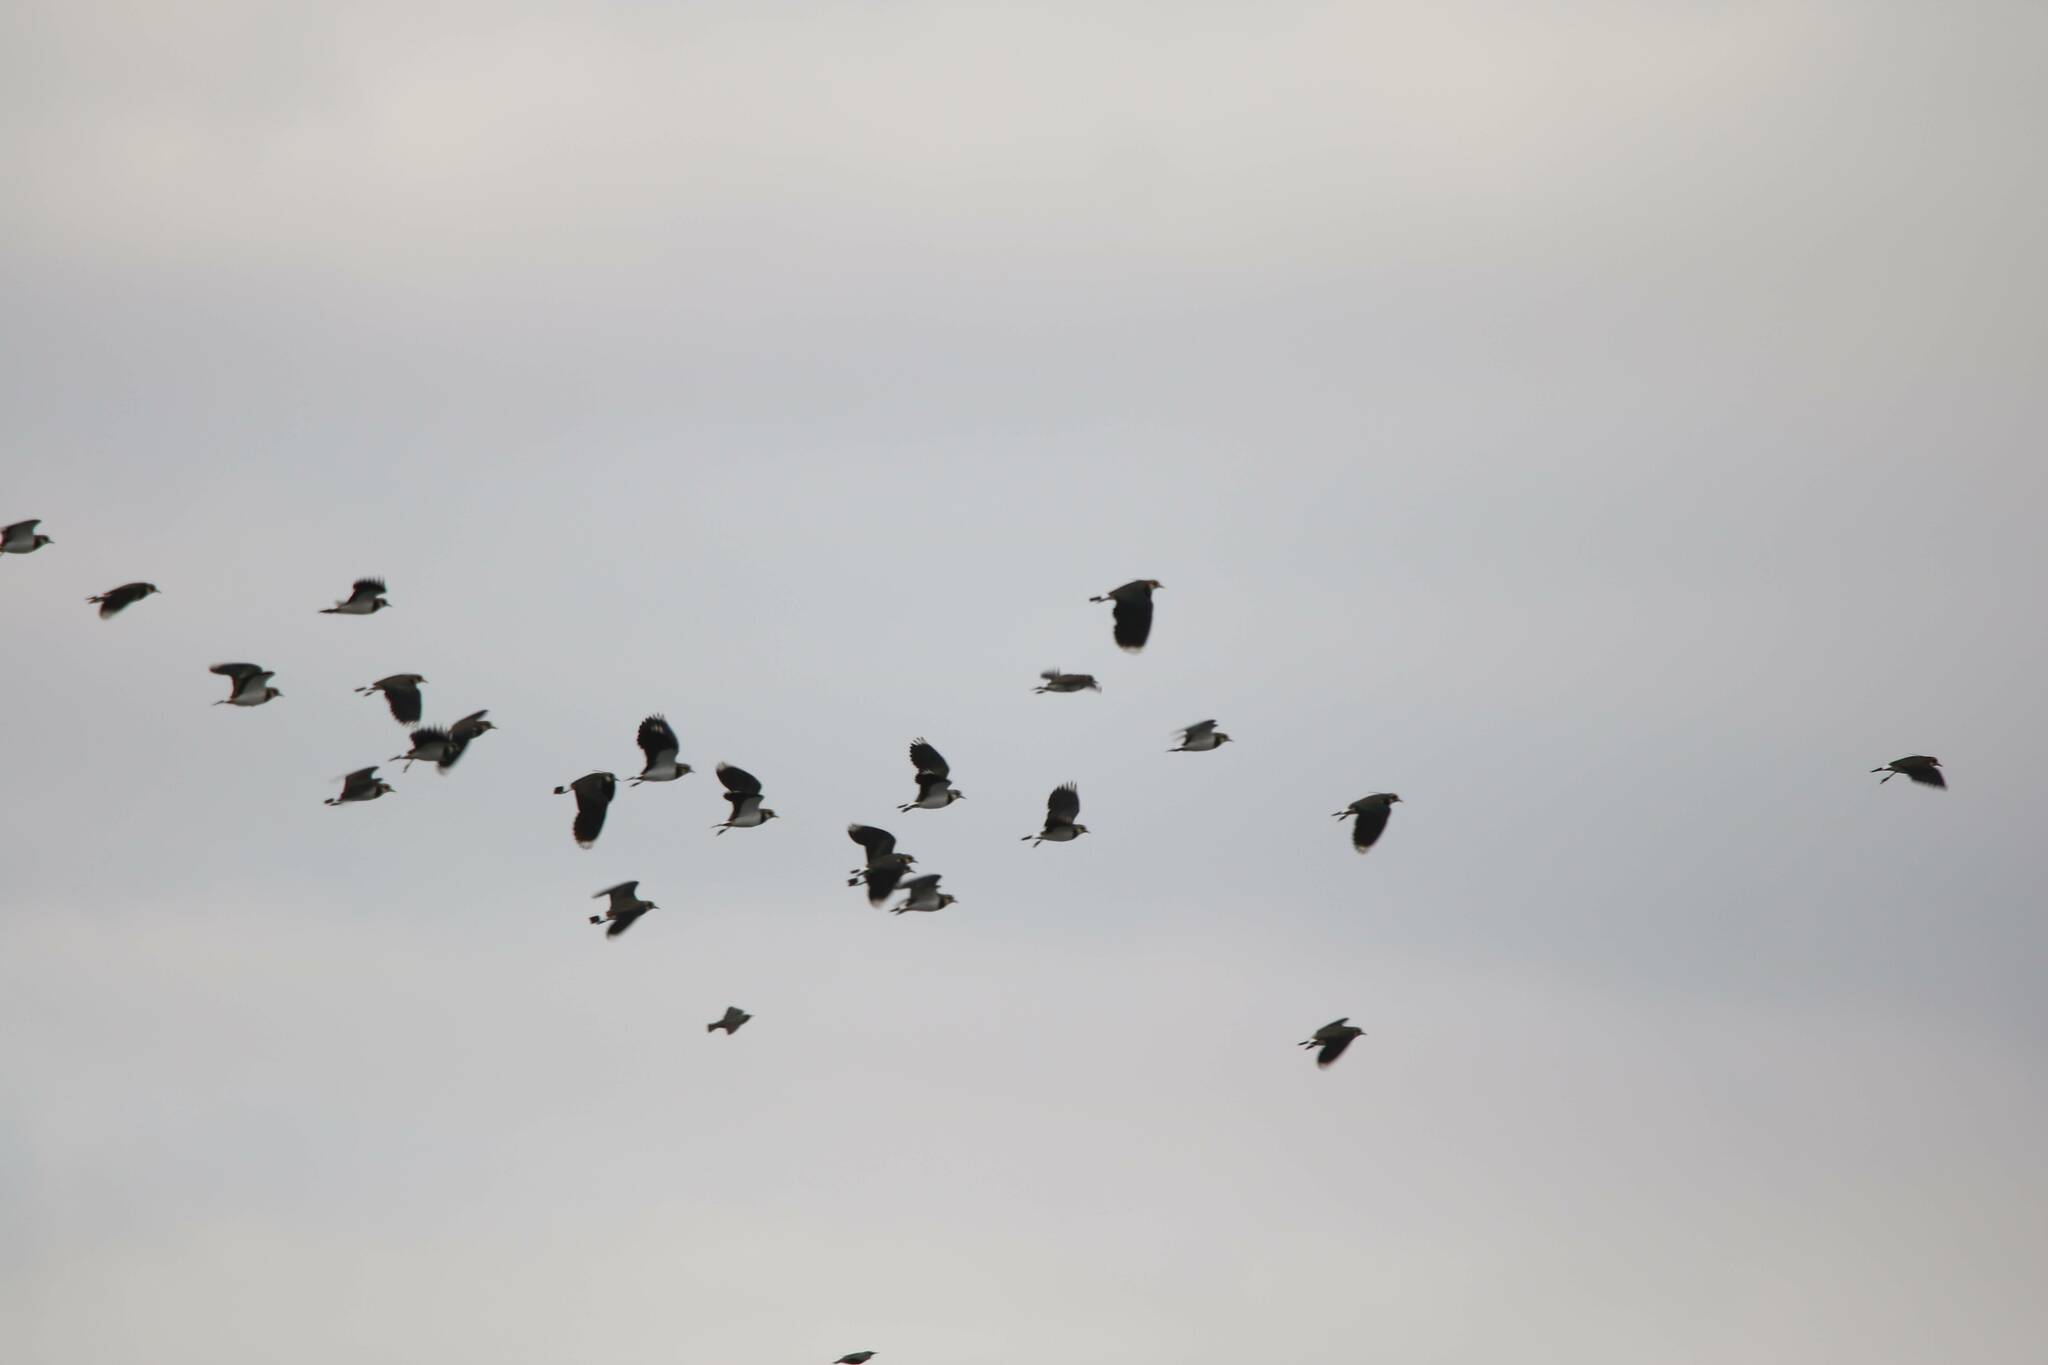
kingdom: Animalia
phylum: Chordata
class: Aves
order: Charadriiformes
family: Charadriidae
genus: Vanellus
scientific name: Vanellus vanellus
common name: Northern lapwing
